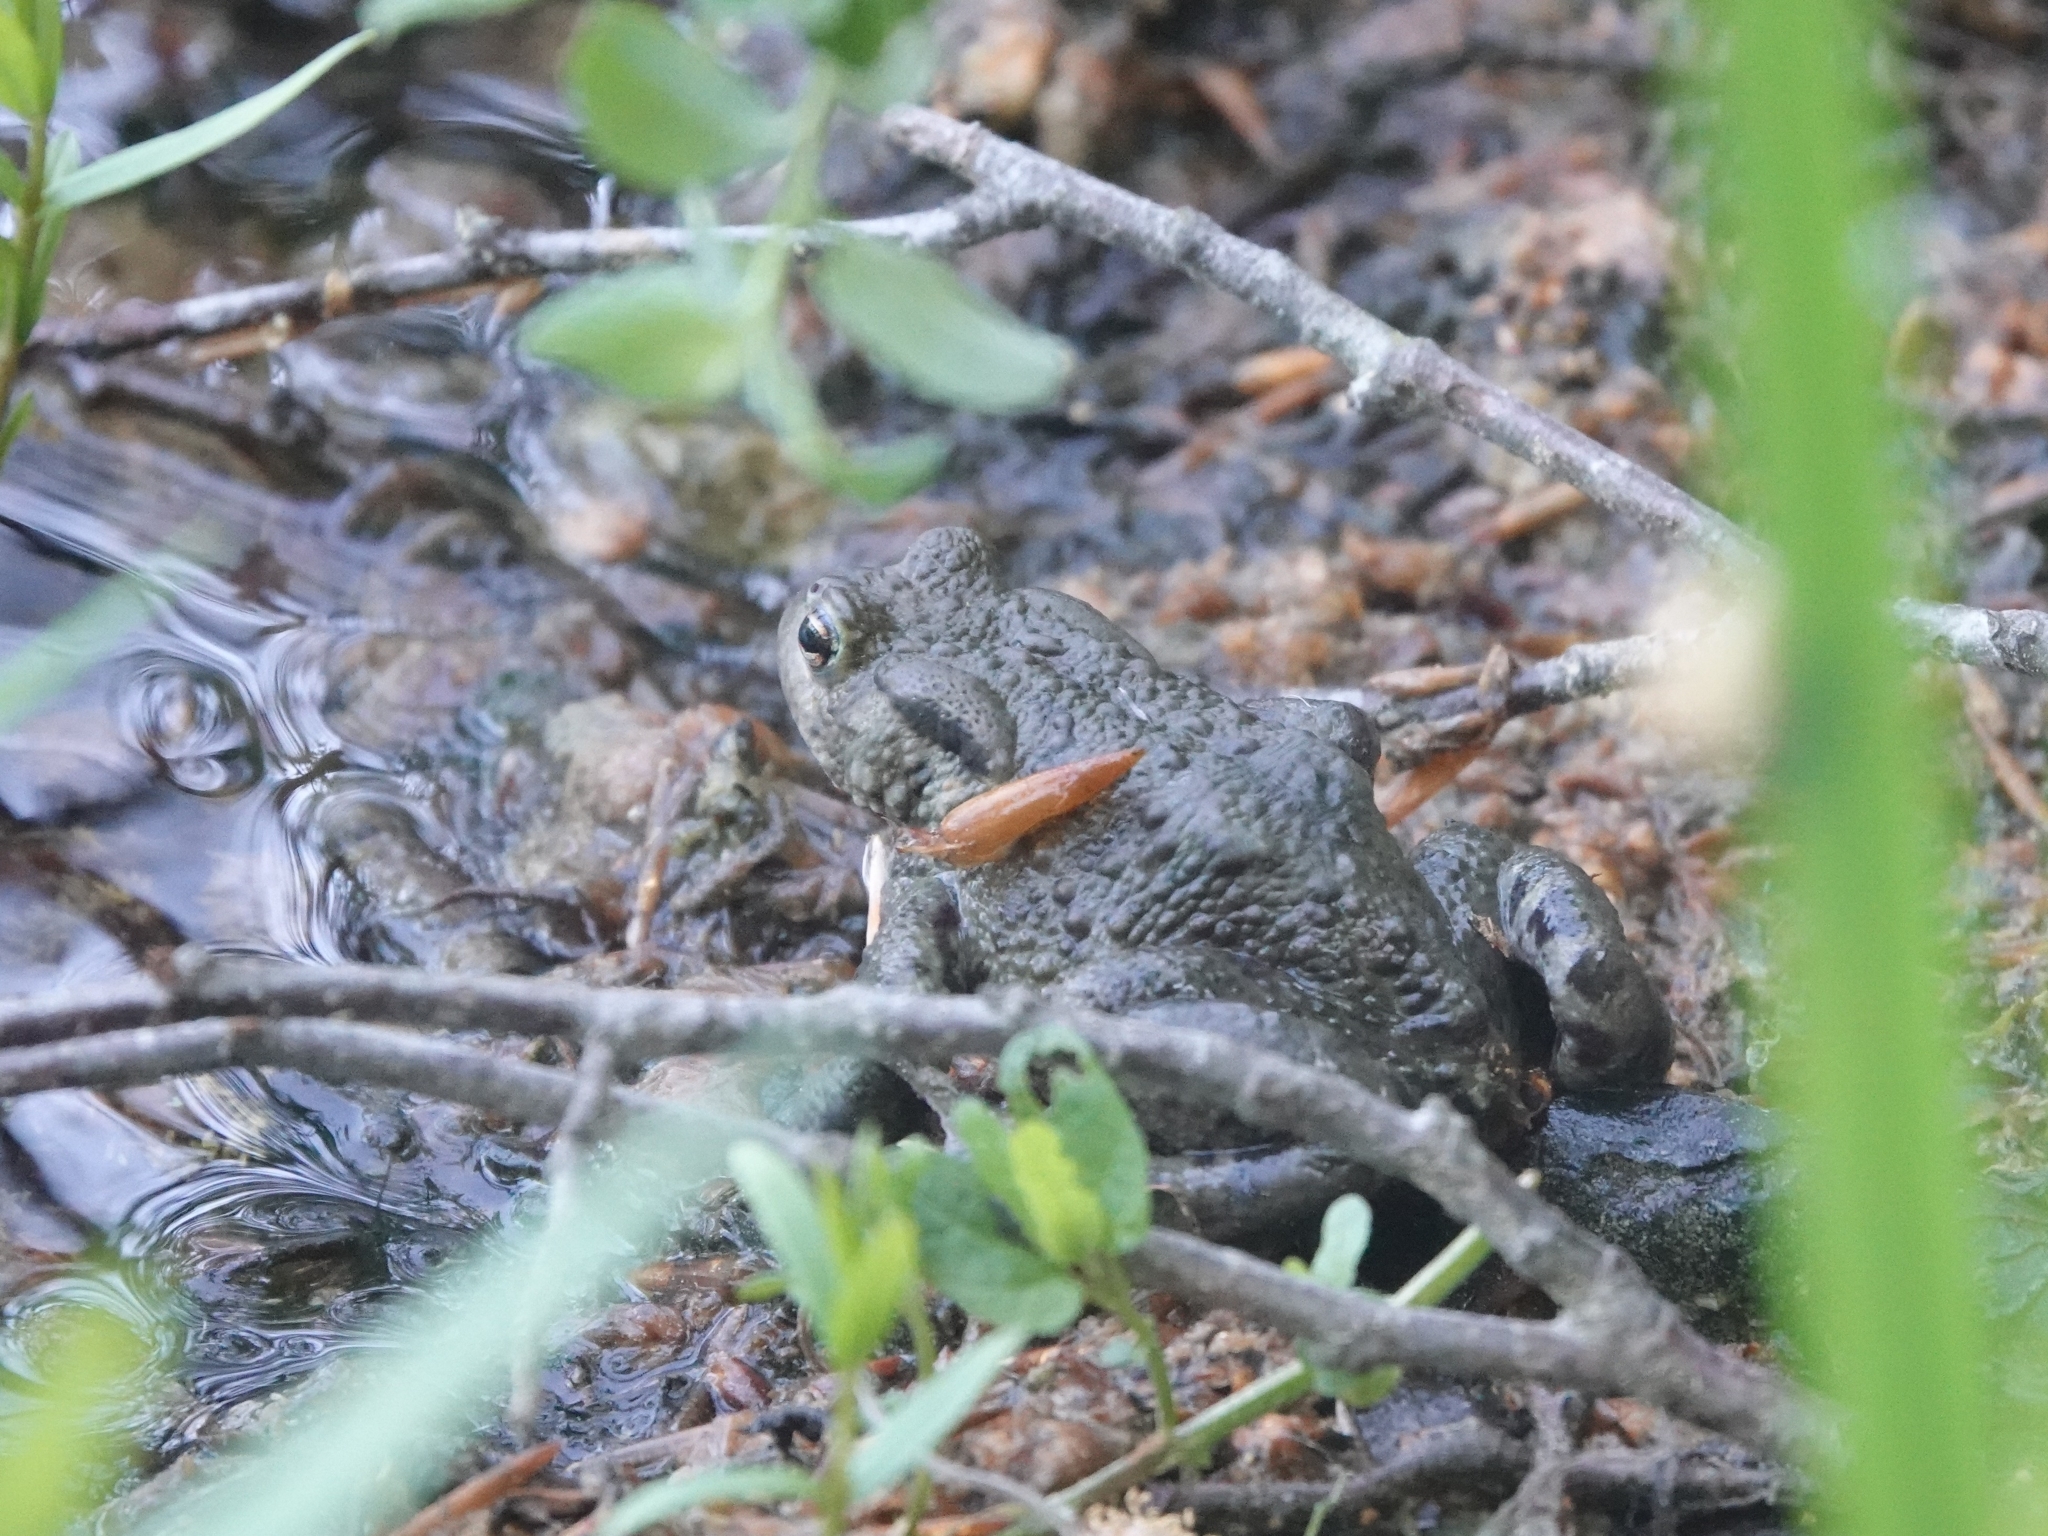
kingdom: Animalia
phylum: Chordata
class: Amphibia
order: Anura
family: Bufonidae
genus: Bufo
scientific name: Bufo bufo
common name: Common toad
